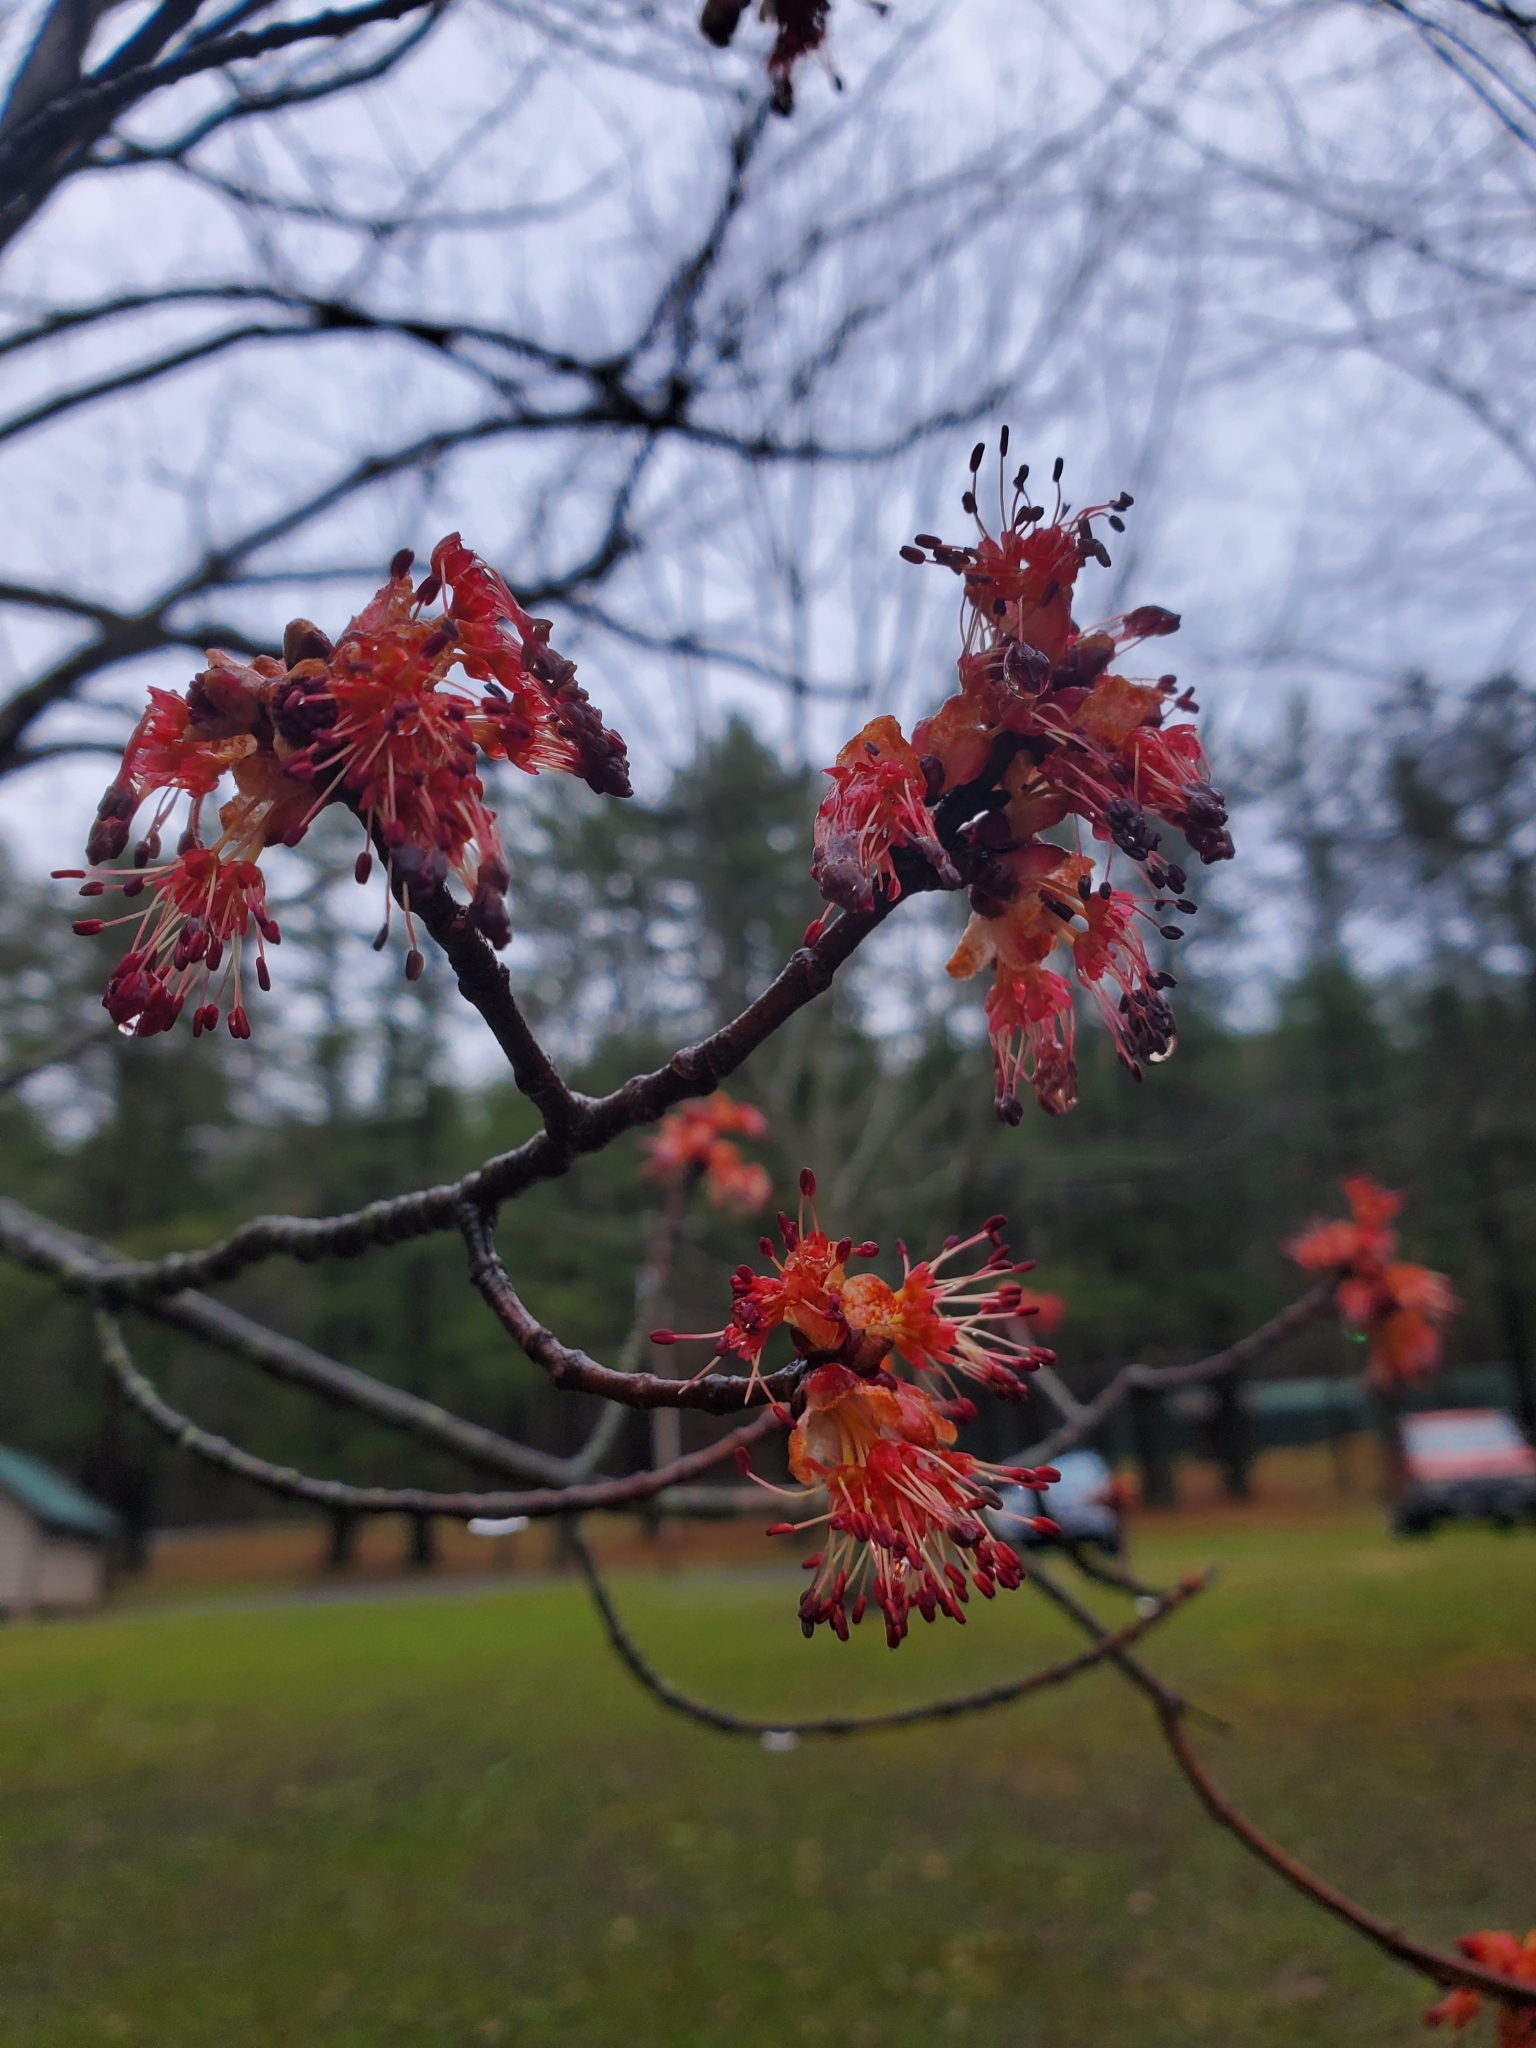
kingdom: Plantae
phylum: Tracheophyta
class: Magnoliopsida
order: Sapindales
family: Sapindaceae
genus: Acer
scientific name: Acer rubrum
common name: Red maple
